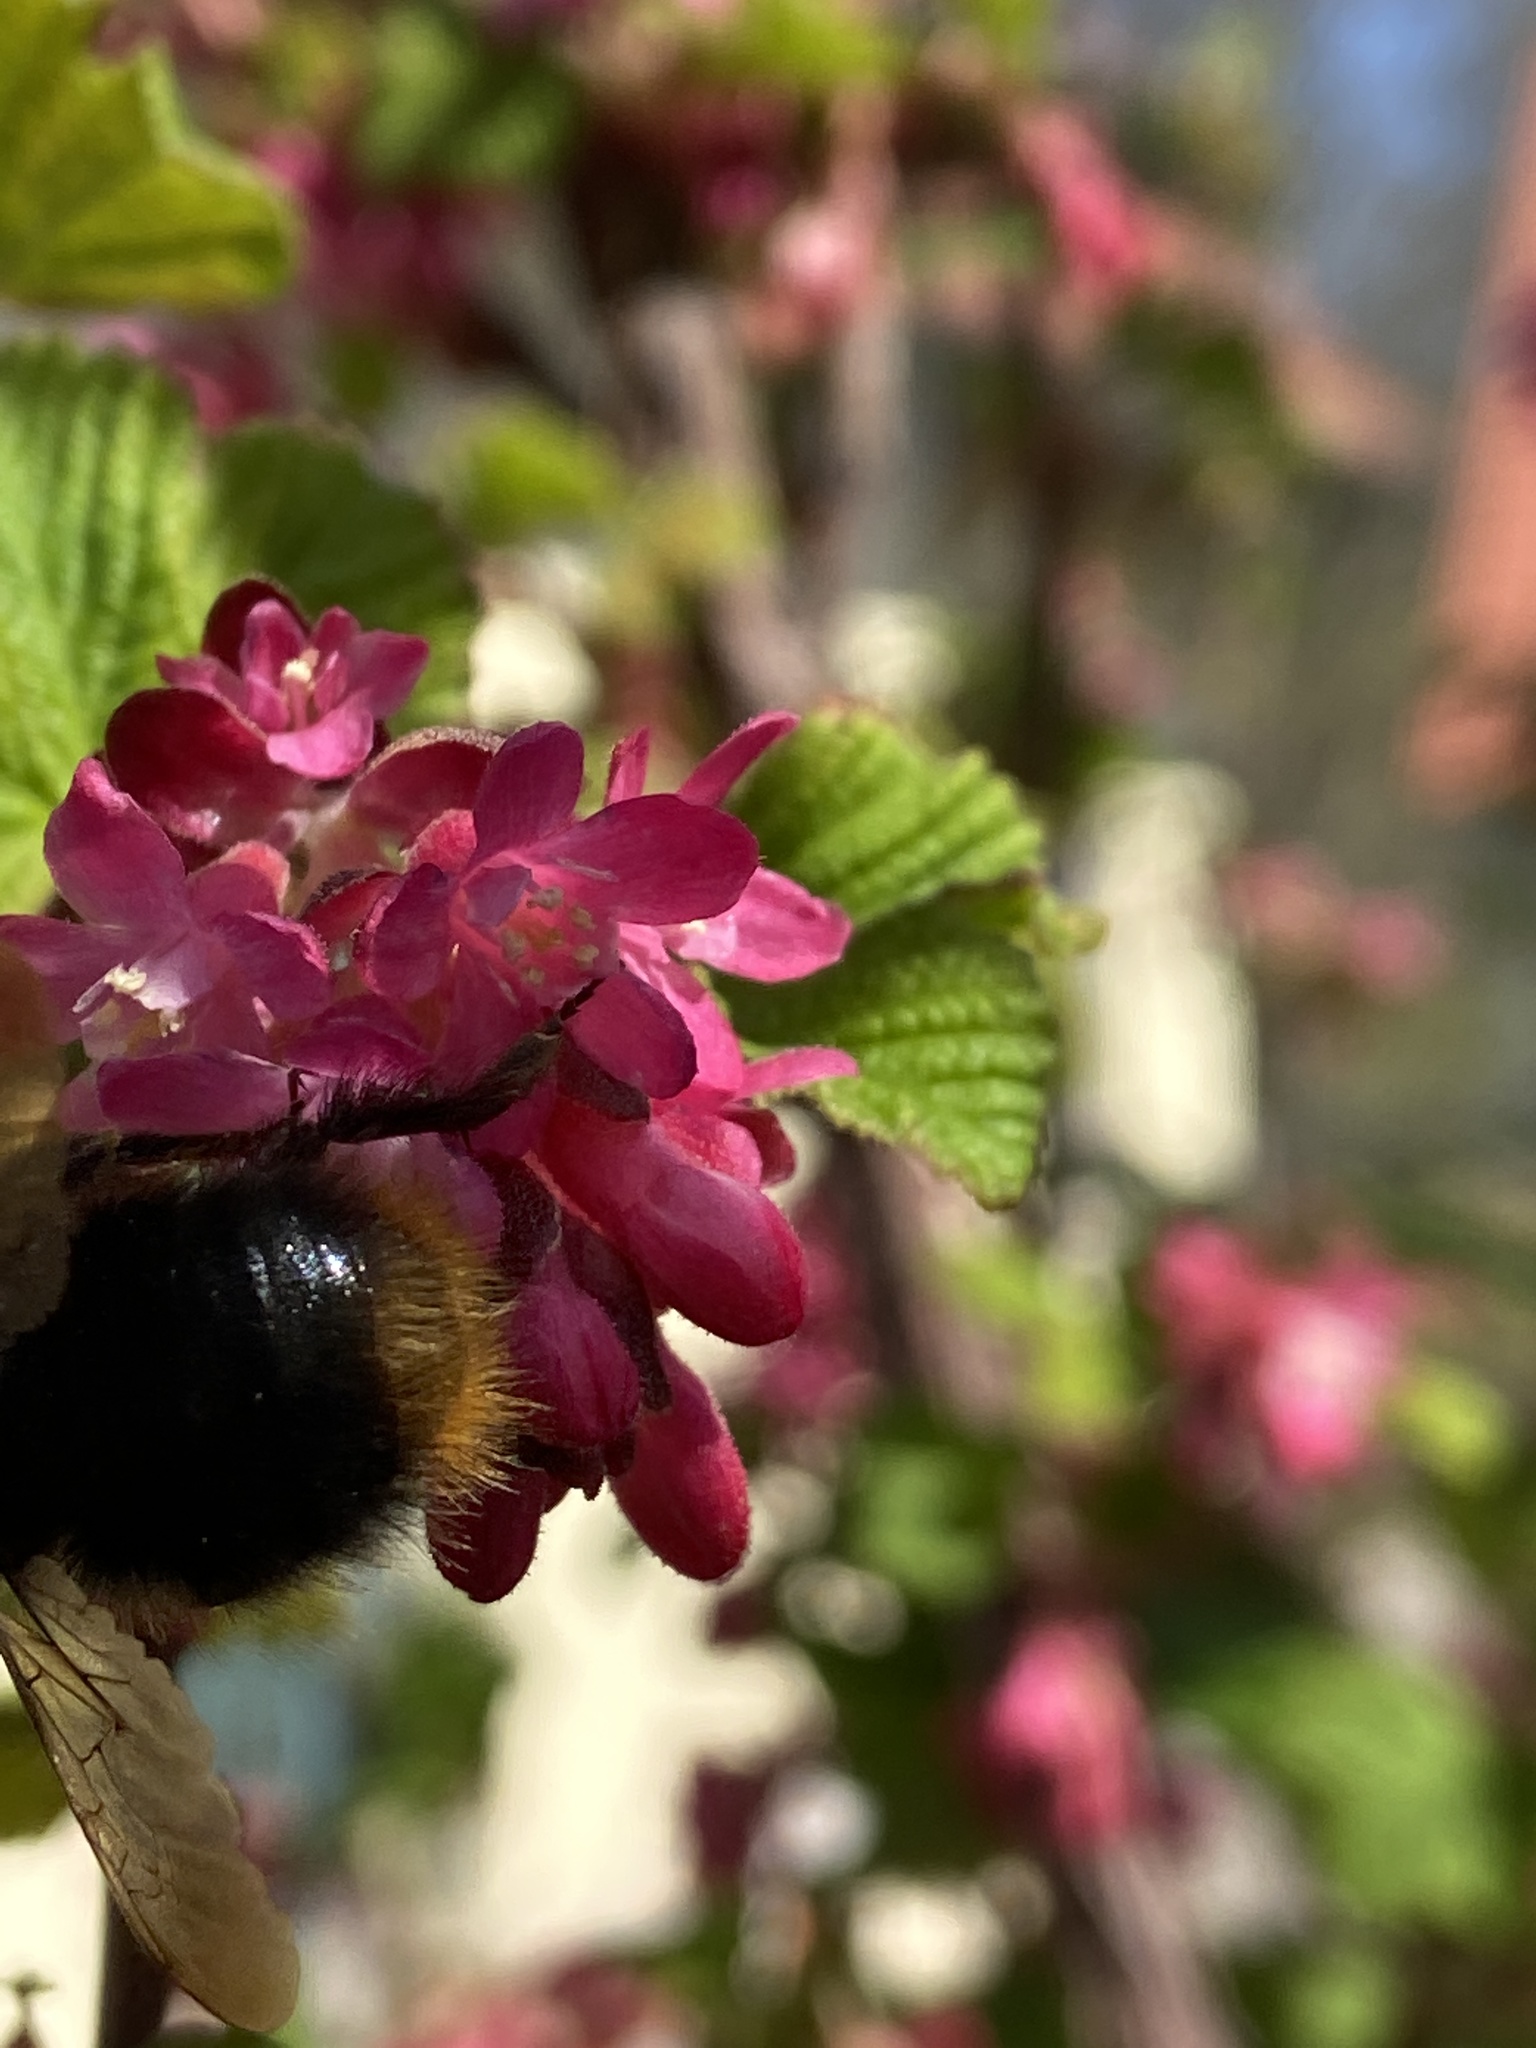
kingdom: Animalia
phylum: Arthropoda
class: Insecta
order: Hymenoptera
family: Apidae
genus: Bombus
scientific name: Bombus pratorum
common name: Early humble-bee
